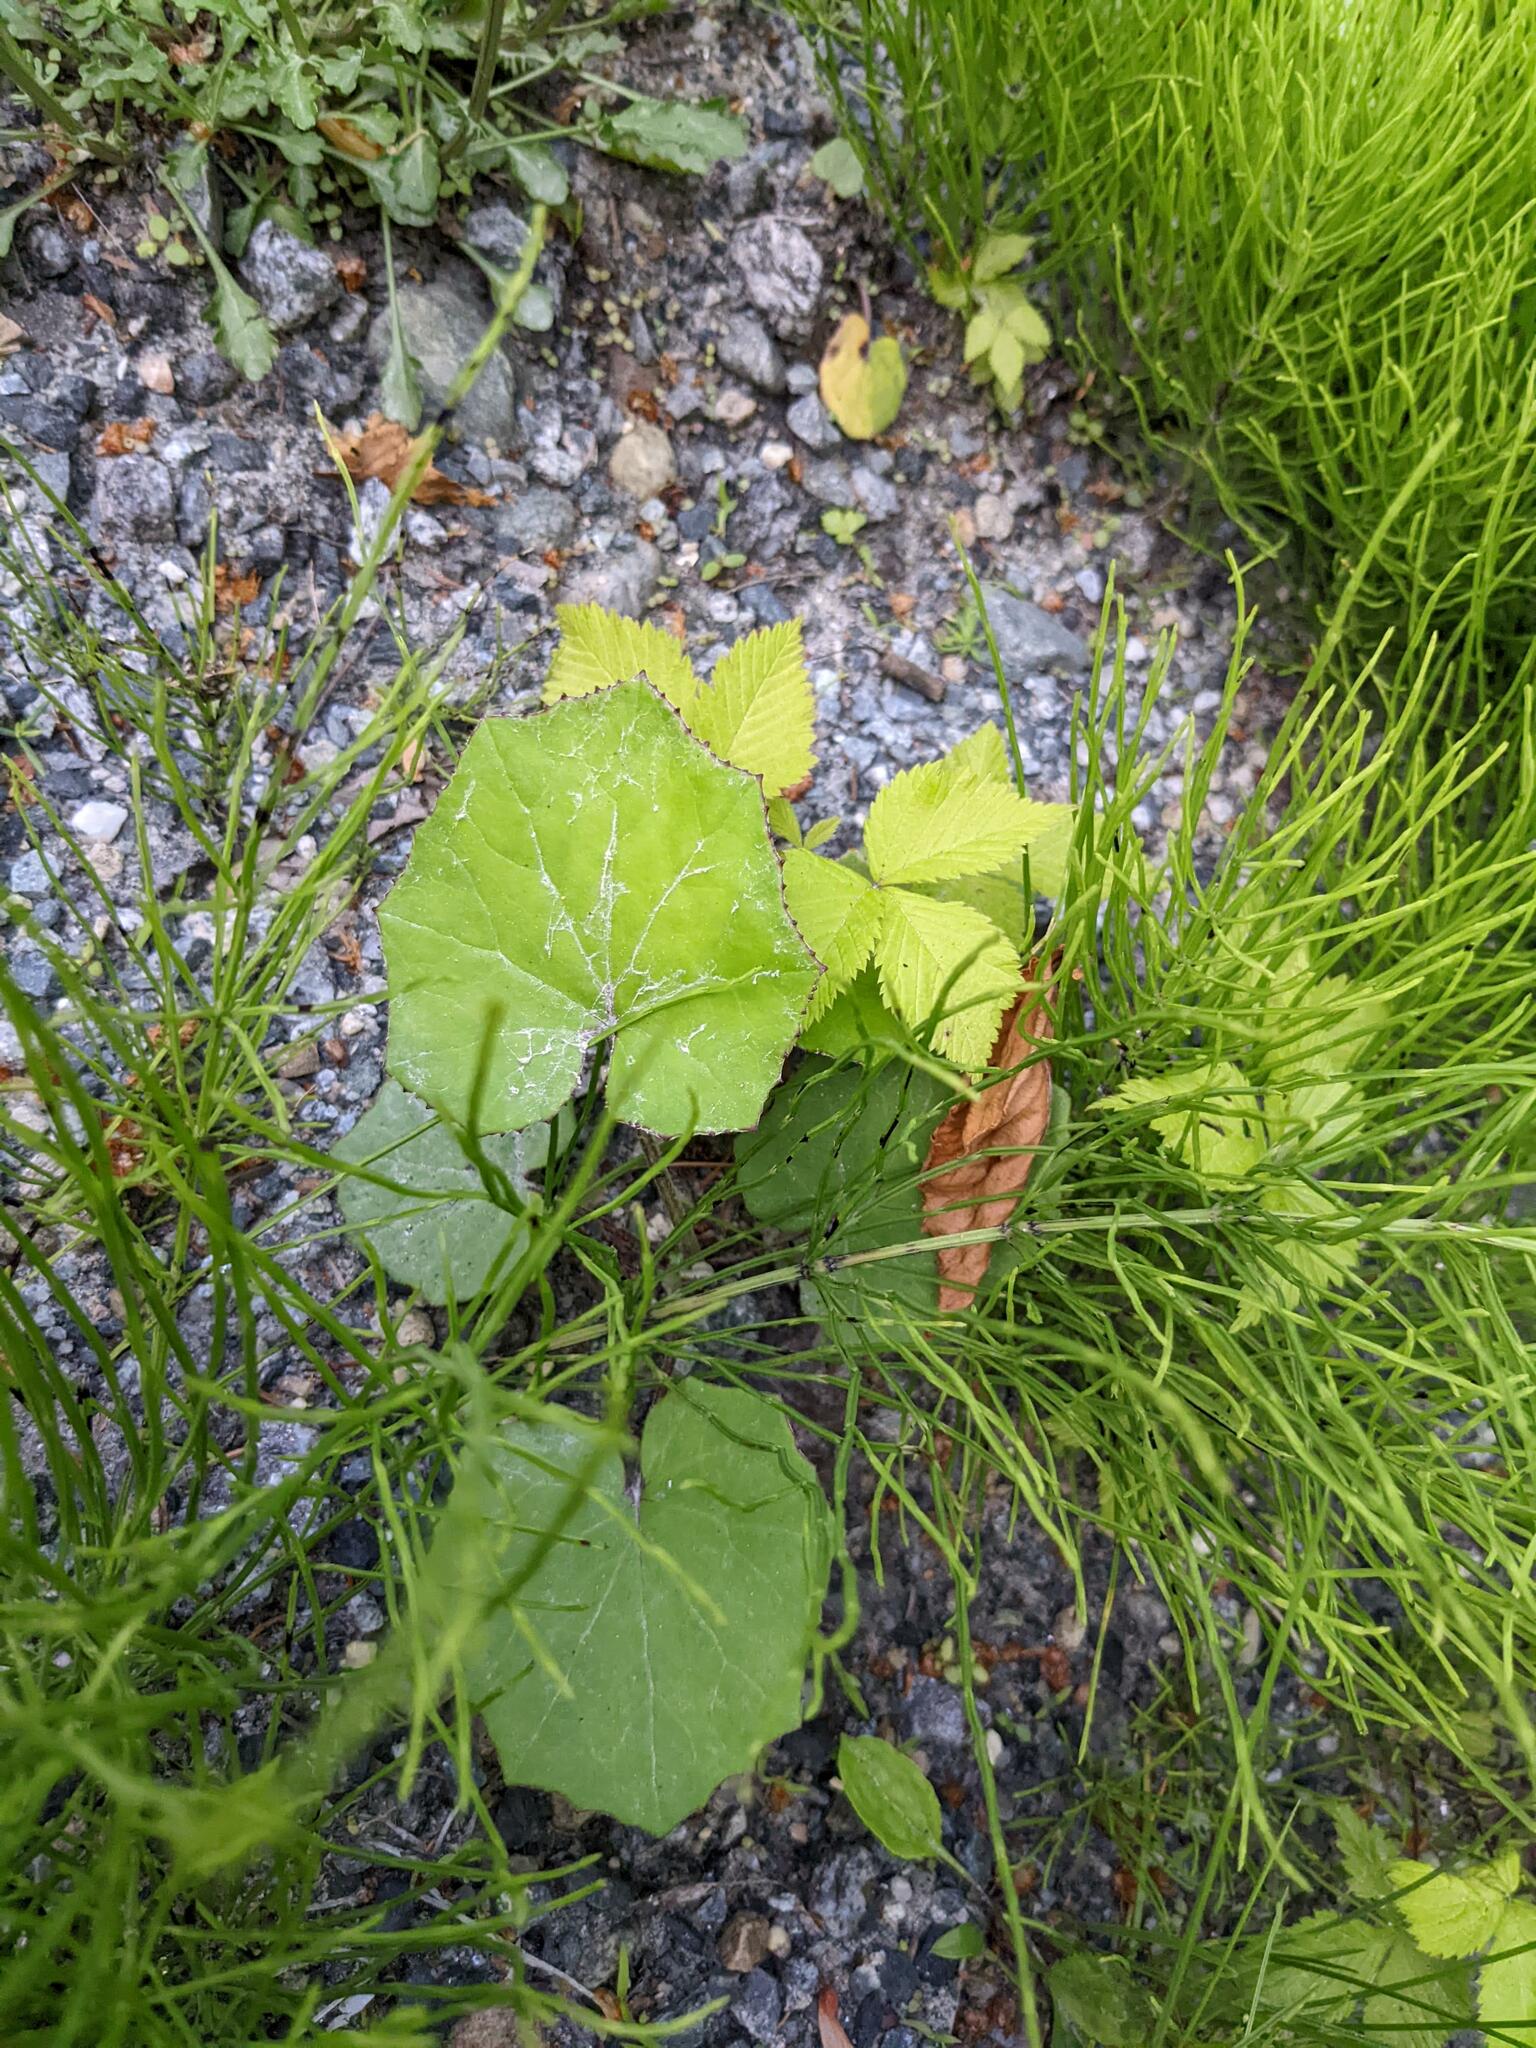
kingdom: Plantae
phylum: Tracheophyta
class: Magnoliopsida
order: Asterales
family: Asteraceae
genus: Tussilago
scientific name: Tussilago farfara
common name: Coltsfoot
